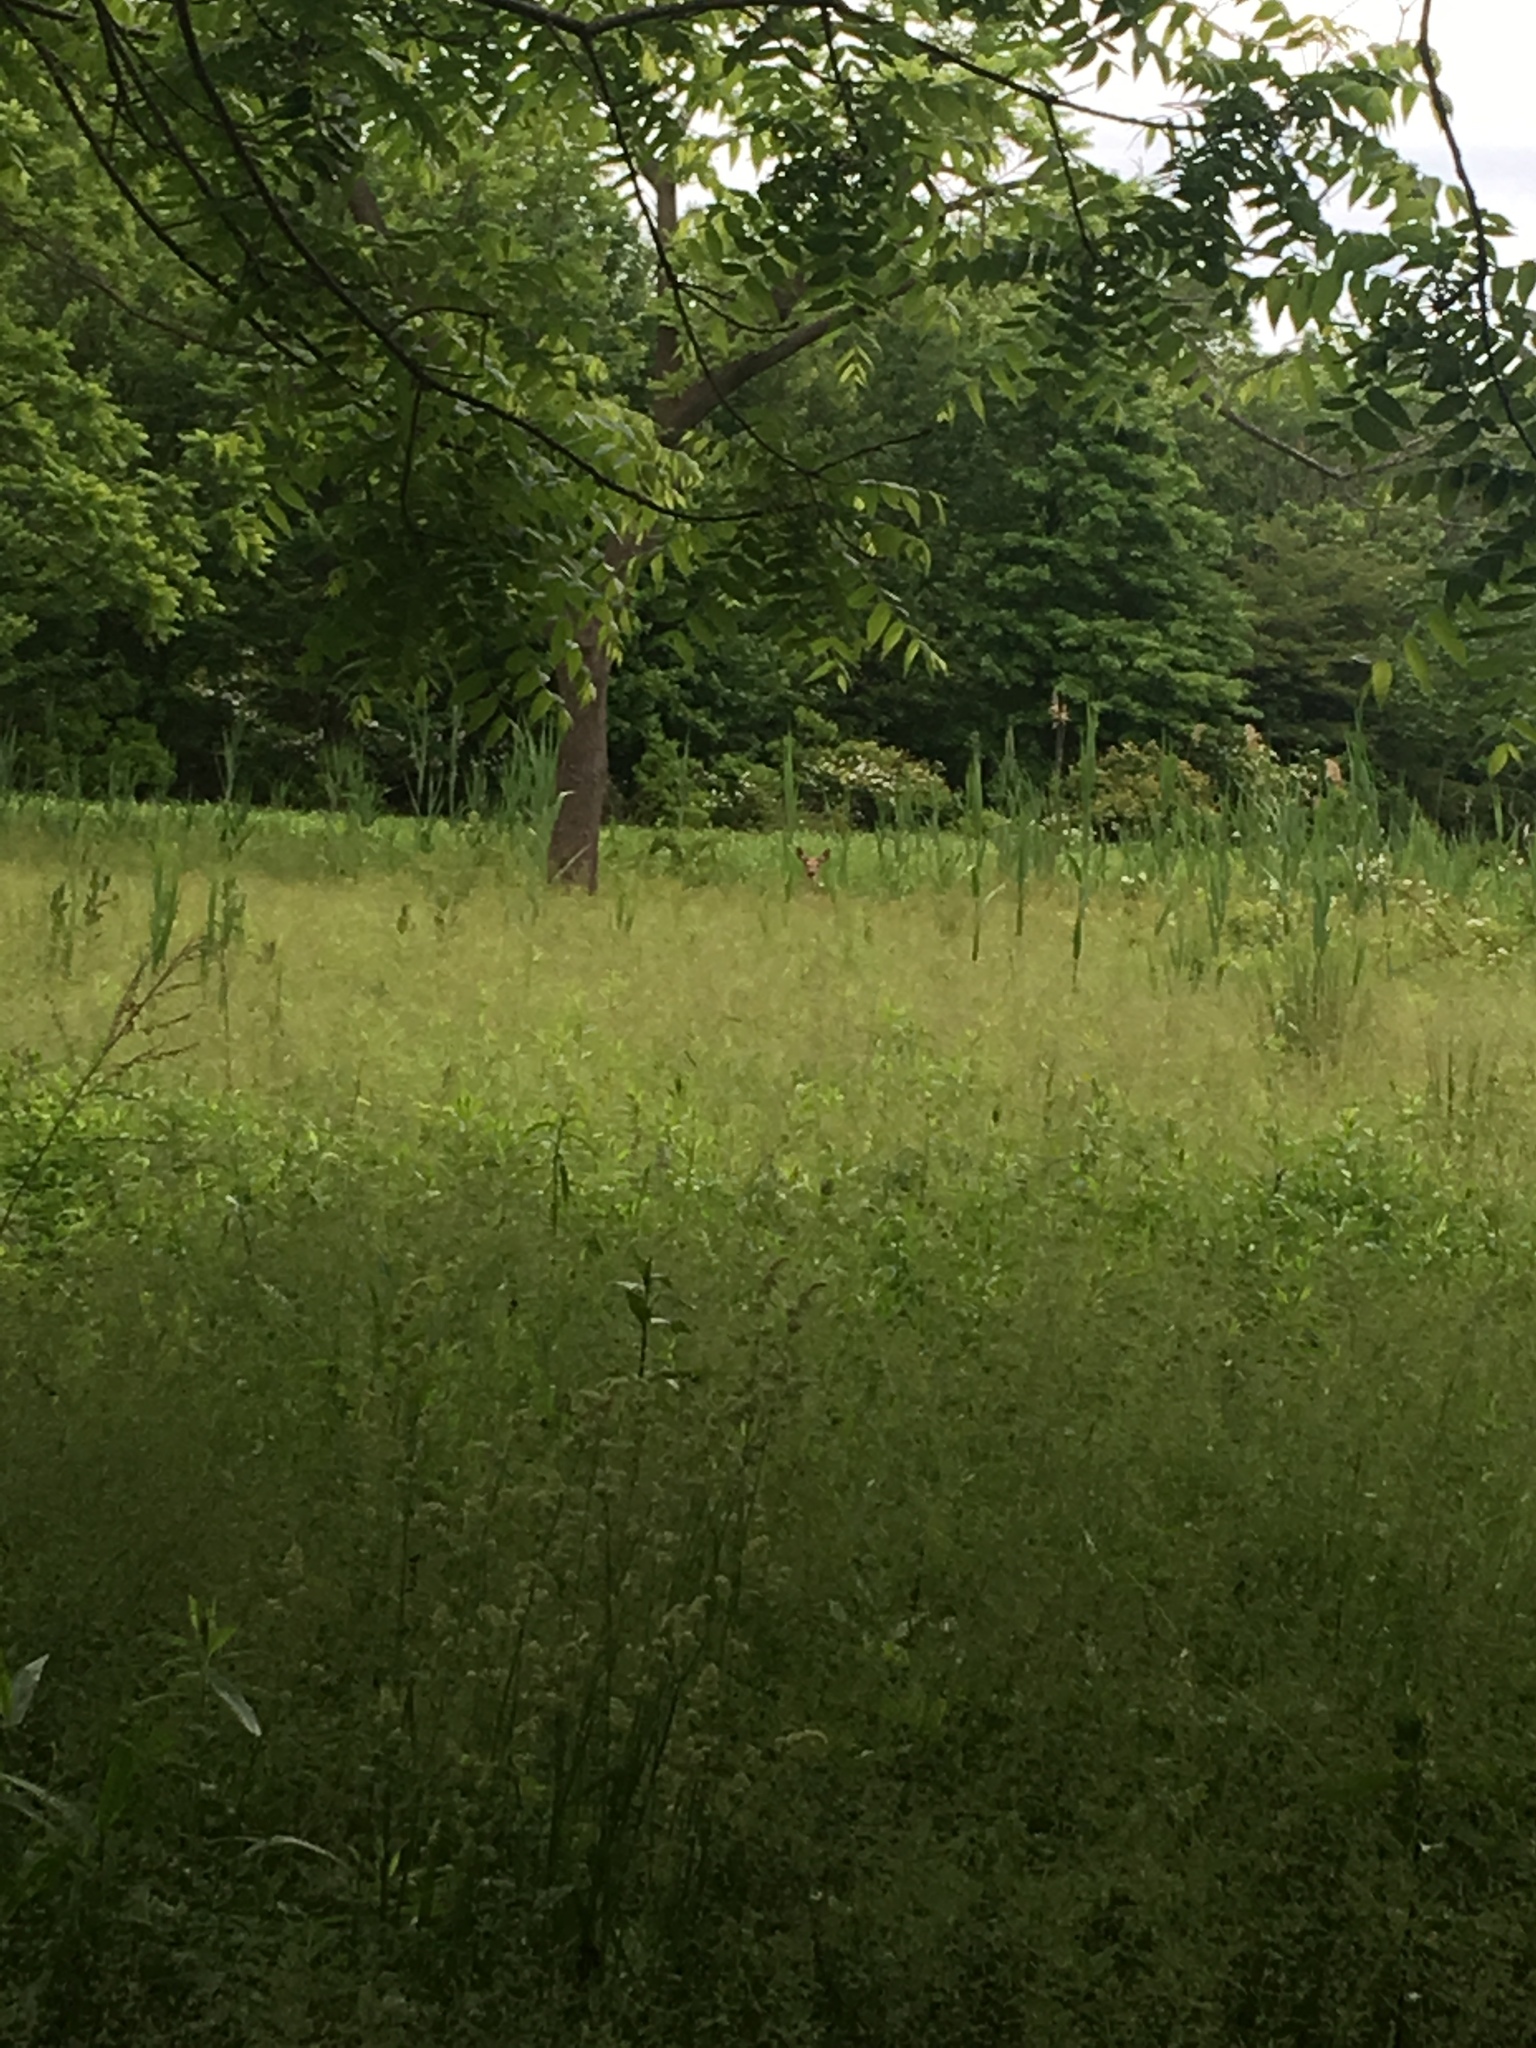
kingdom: Animalia
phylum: Chordata
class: Mammalia
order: Artiodactyla
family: Cervidae
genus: Odocoileus
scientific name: Odocoileus virginianus
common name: White-tailed deer
